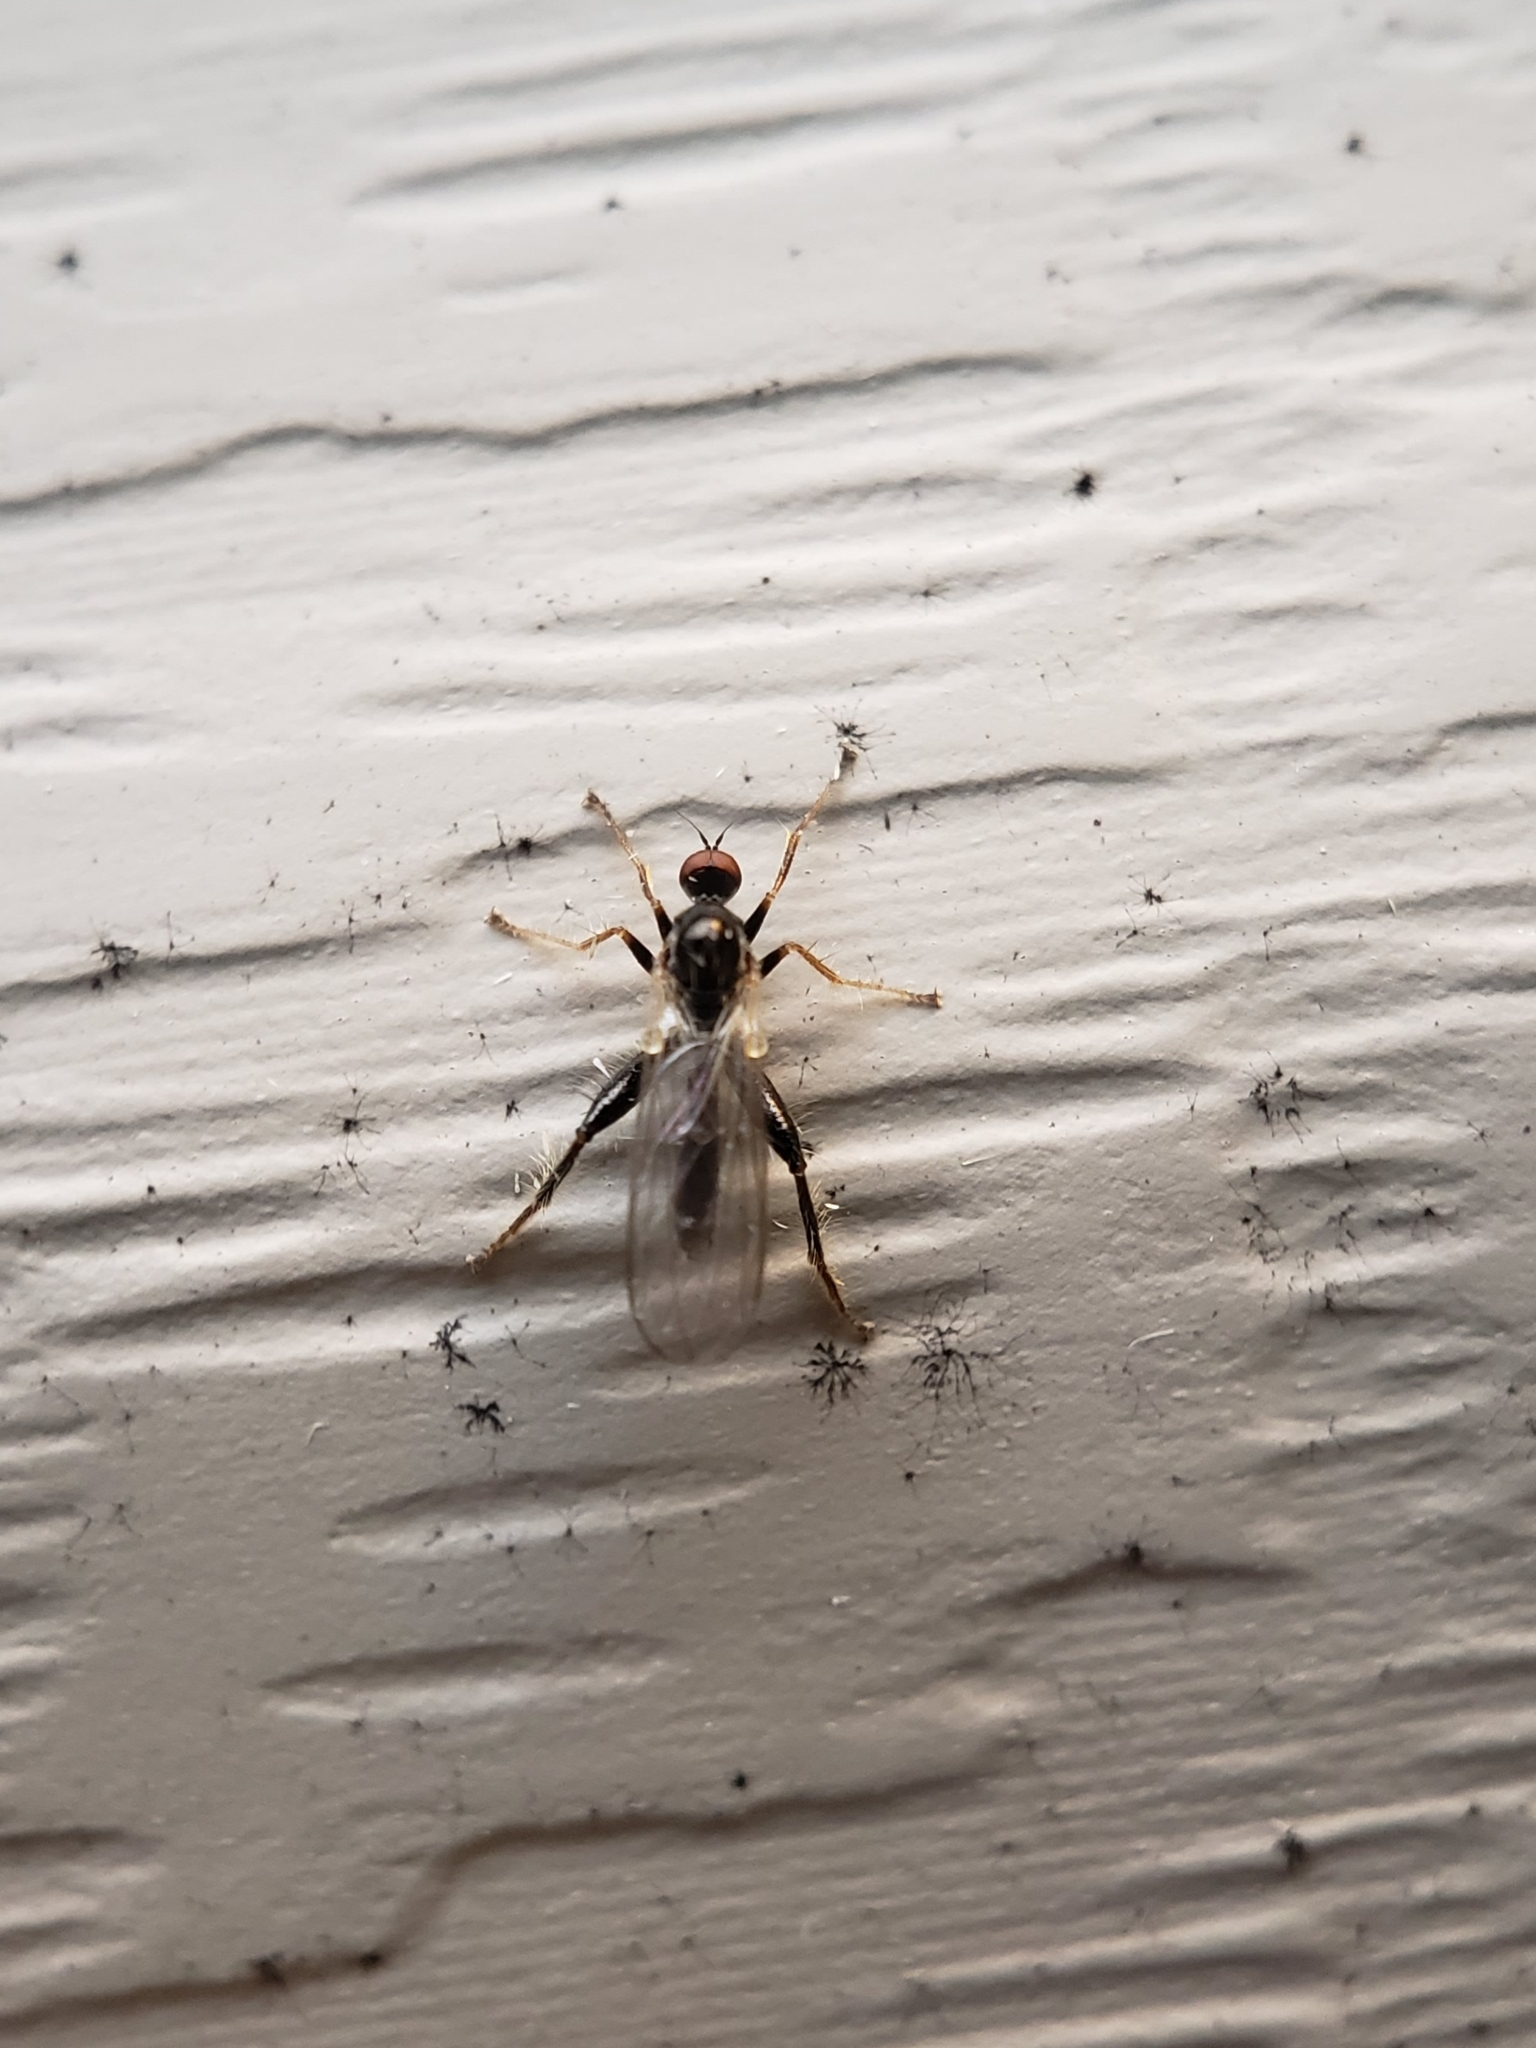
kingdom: Animalia
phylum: Arthropoda
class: Insecta
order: Diptera
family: Hybotidae
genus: Hybos
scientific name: Hybos reversus
